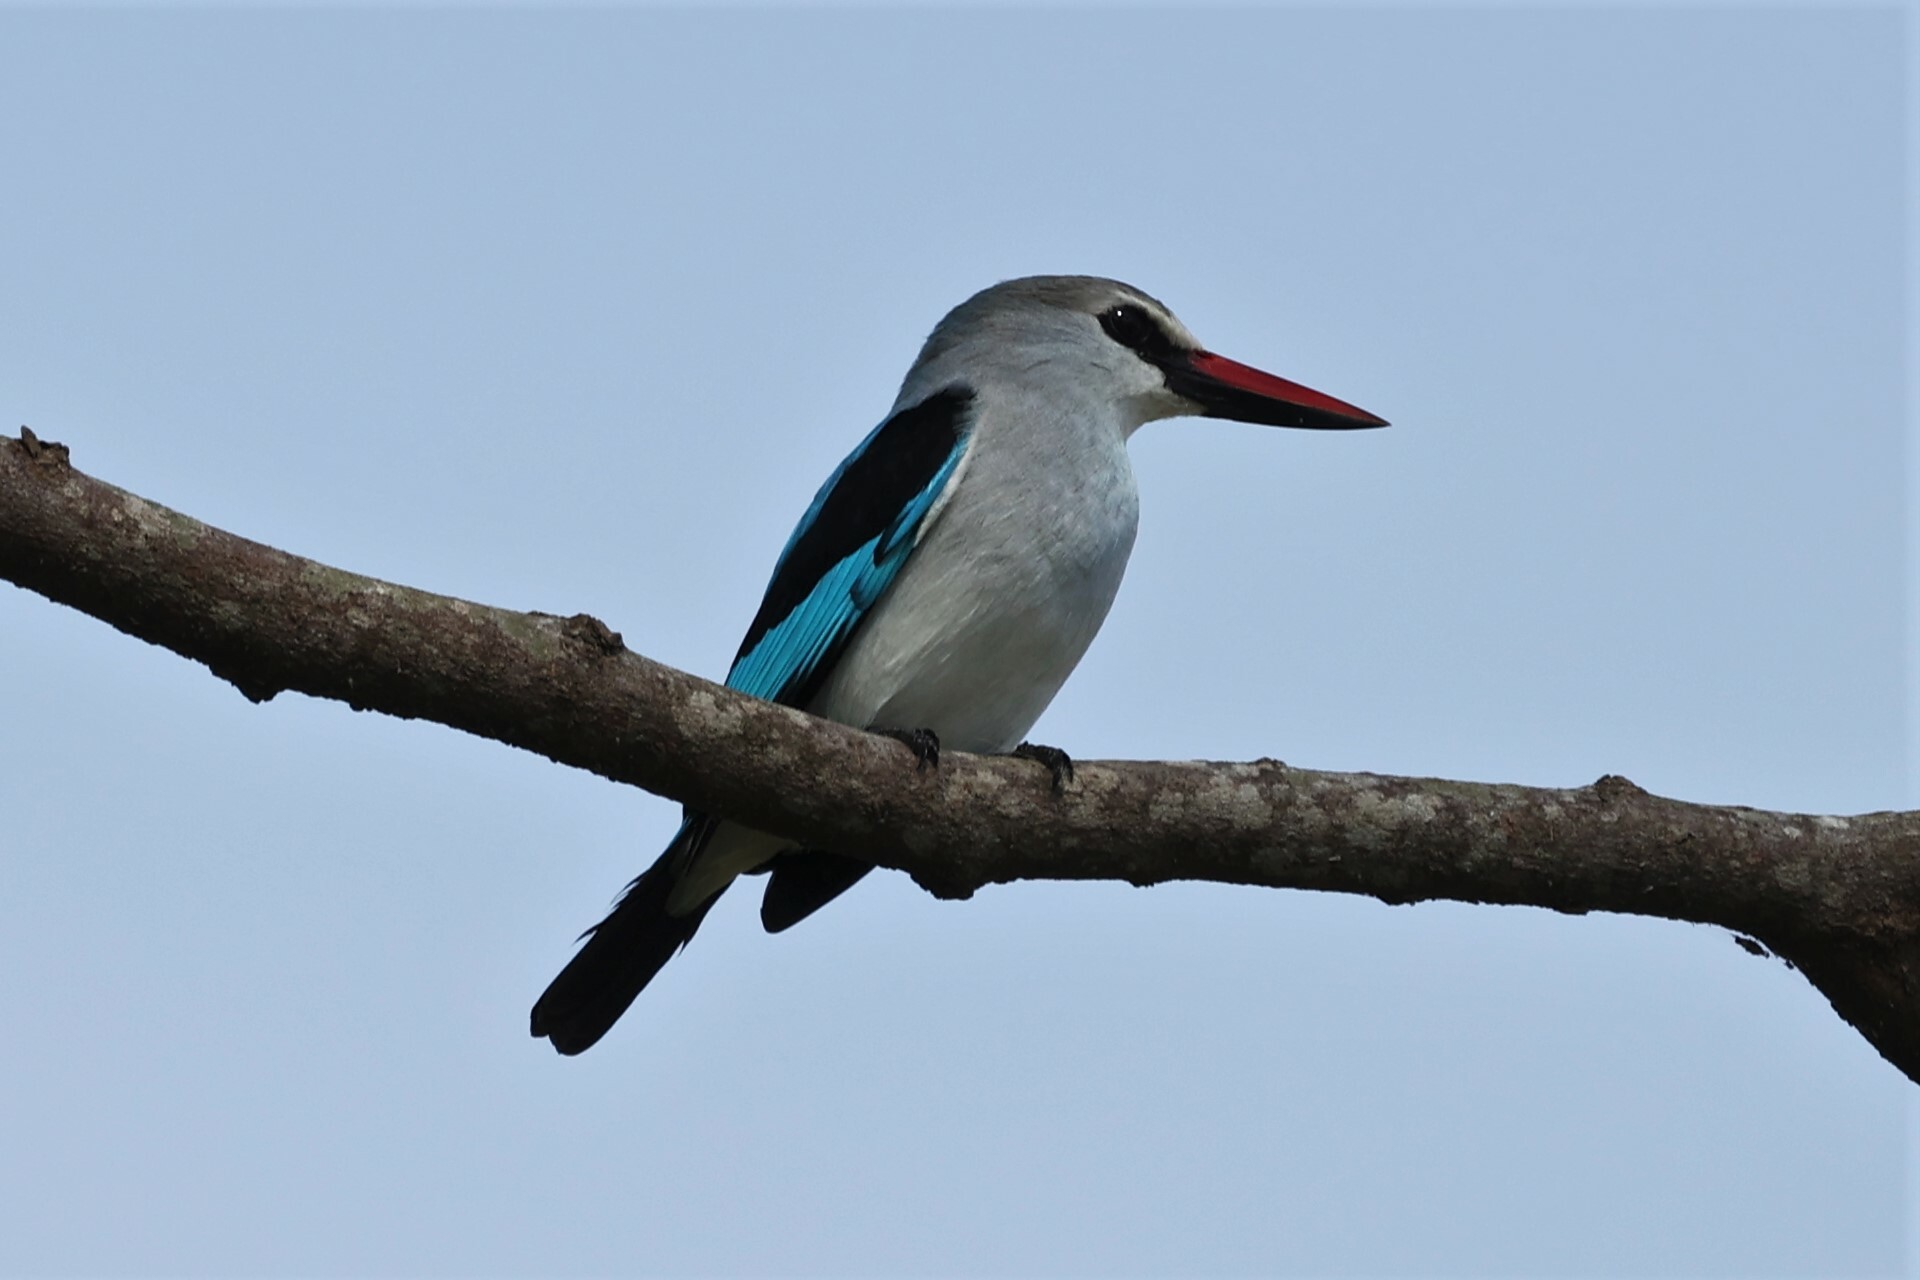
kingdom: Animalia
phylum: Chordata
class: Aves
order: Coraciiformes
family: Alcedinidae
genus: Halcyon
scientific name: Halcyon senegalensis
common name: Woodland kingfisher
